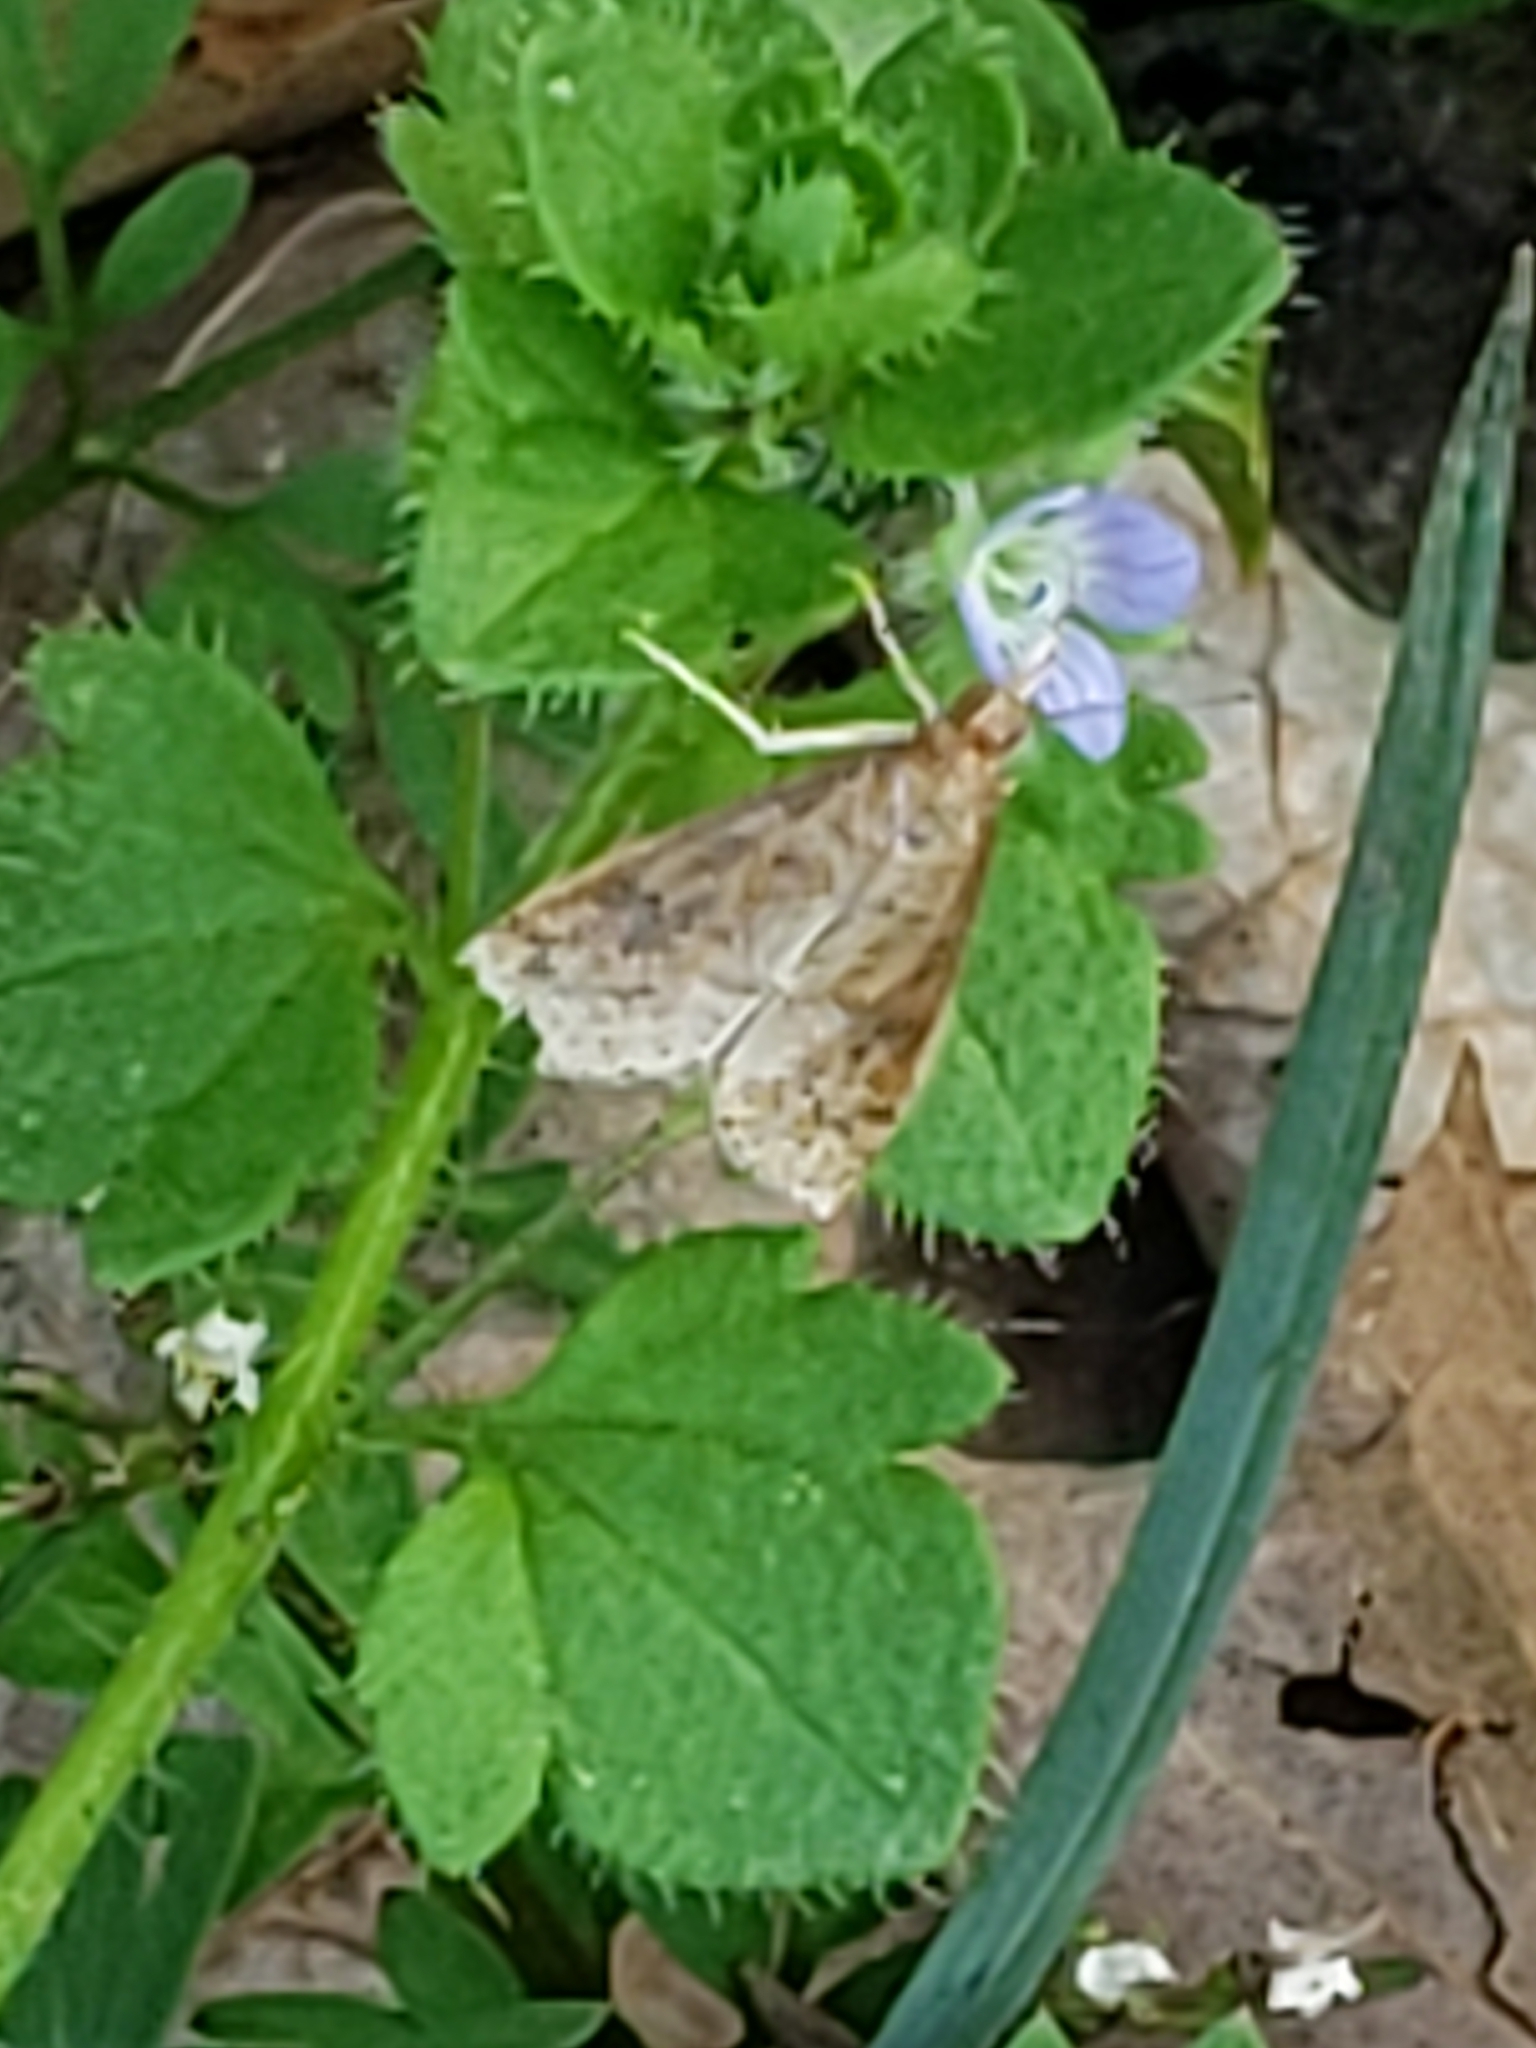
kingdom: Animalia
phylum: Arthropoda
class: Insecta
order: Lepidoptera
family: Crambidae
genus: Udea
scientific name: Udea rubigalis
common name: Celery leaftier moth
